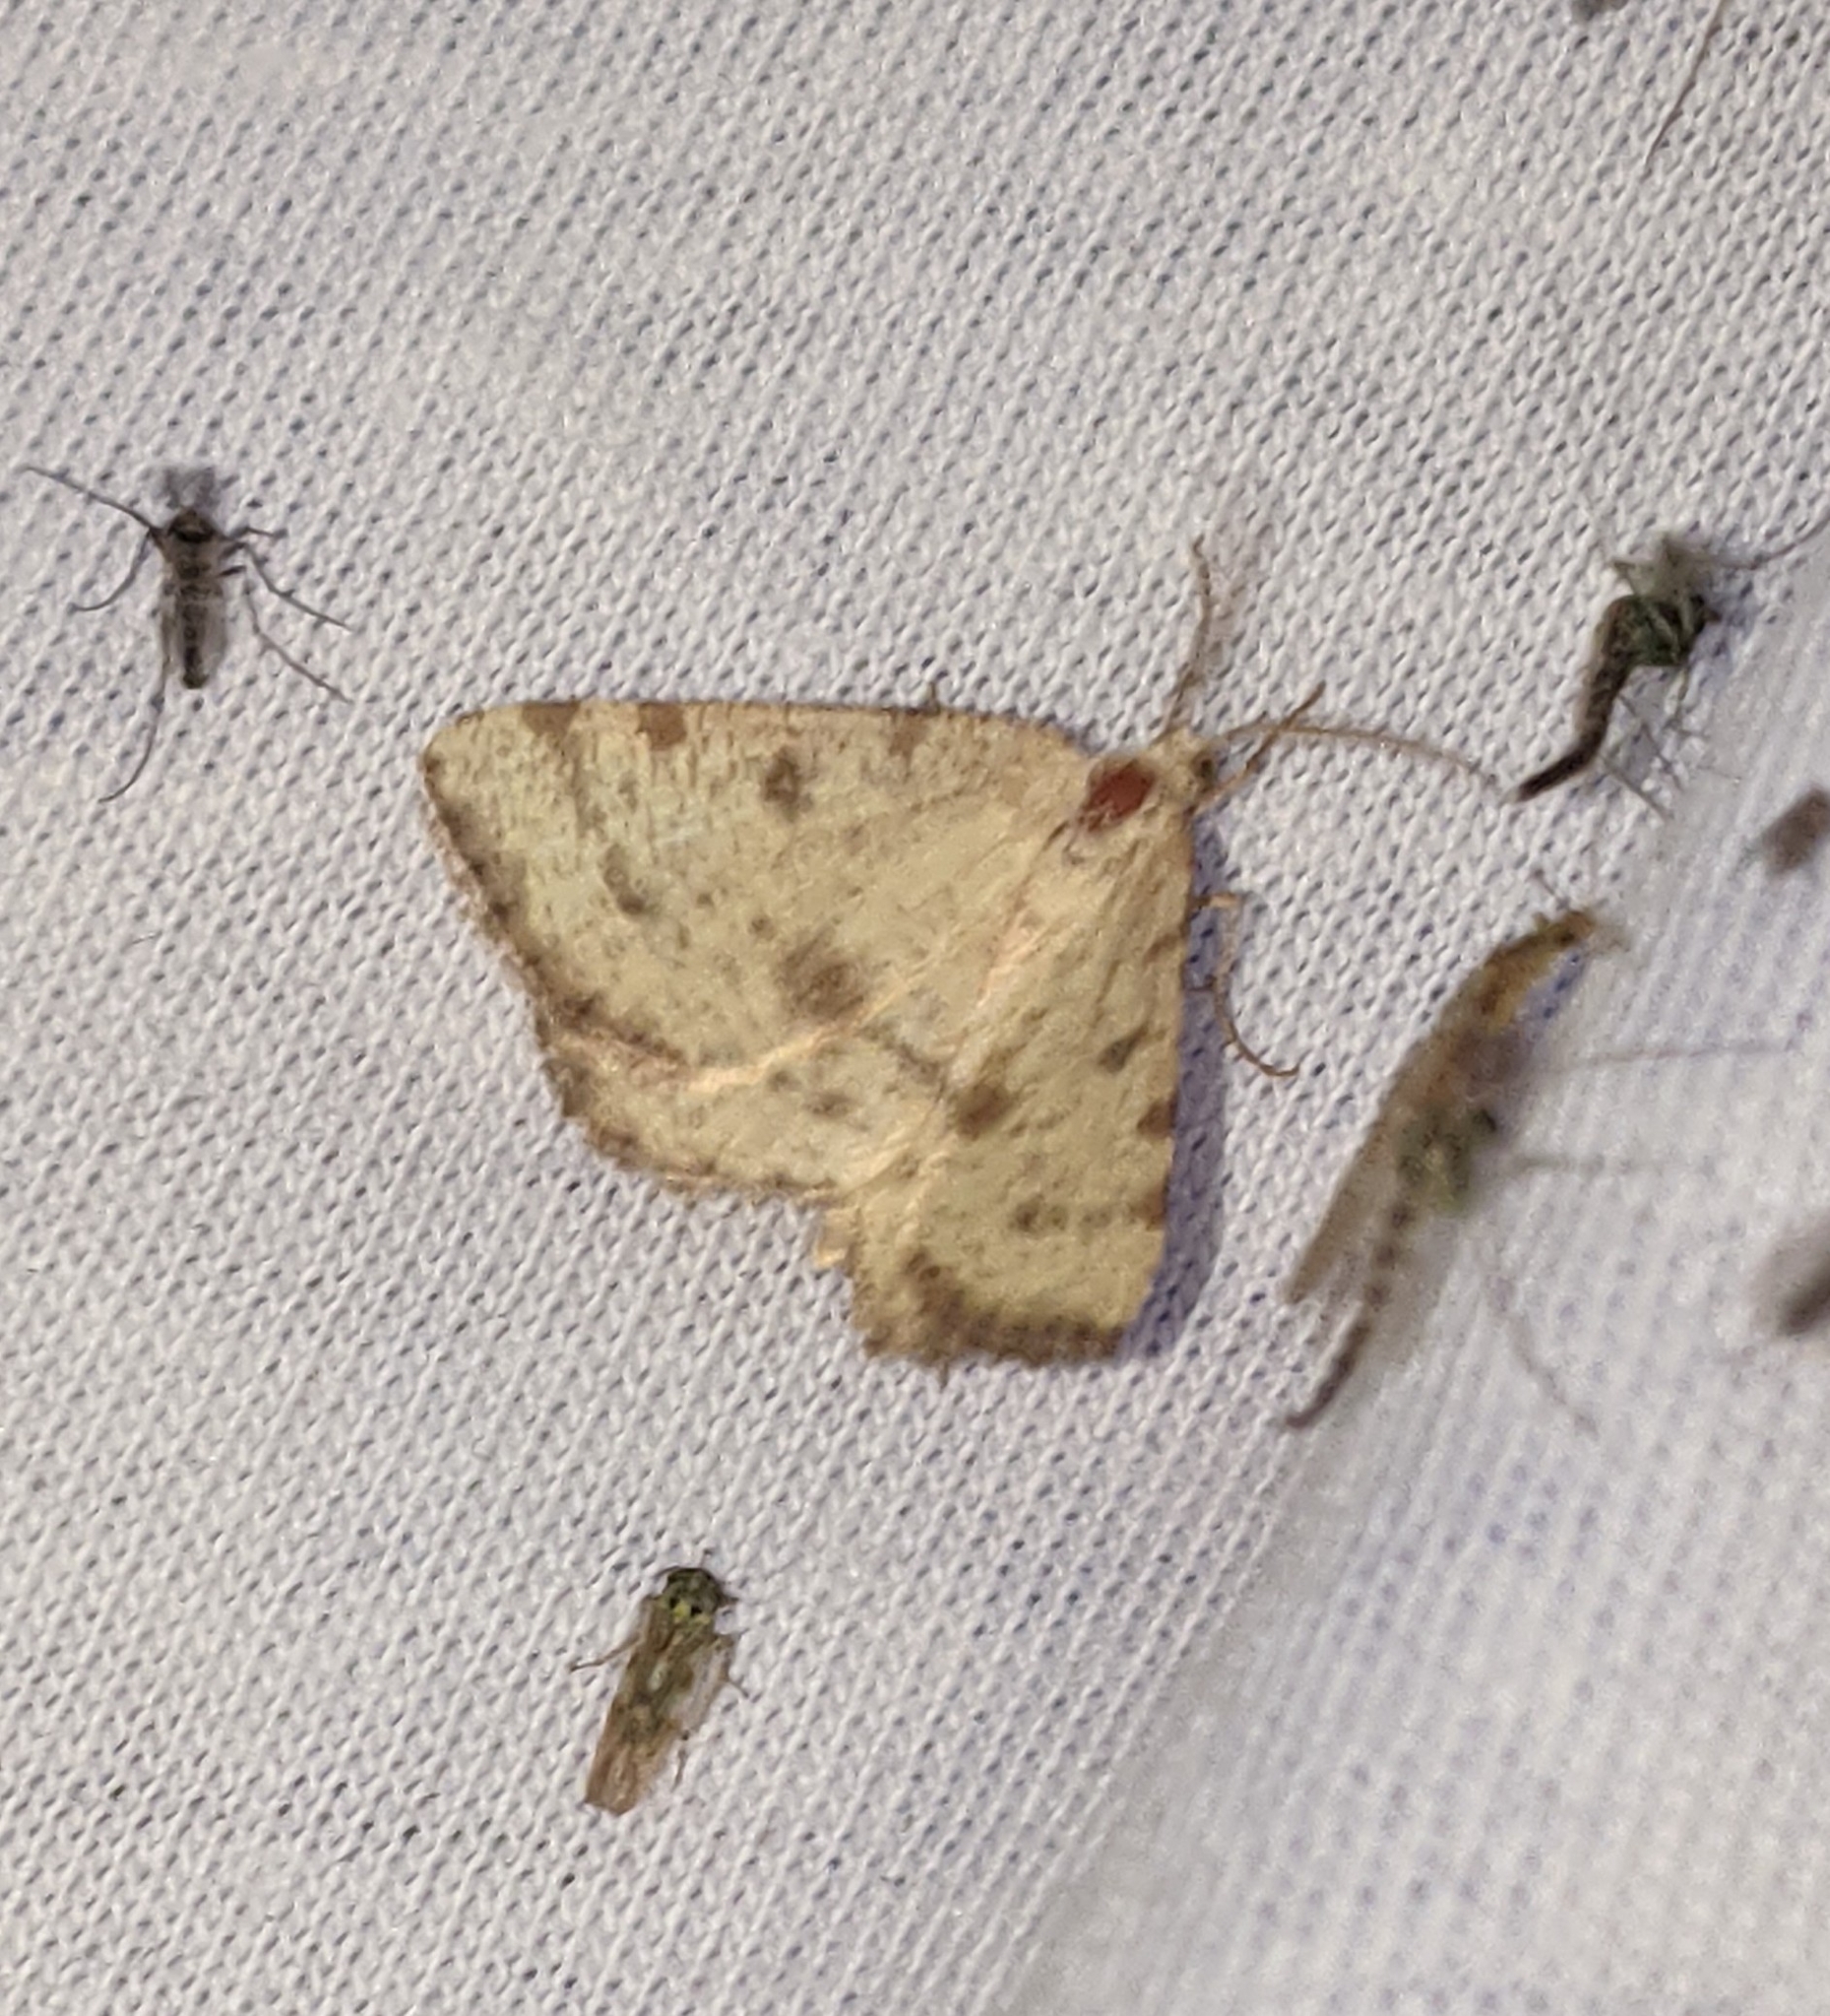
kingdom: Animalia
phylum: Arthropoda
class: Insecta
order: Lepidoptera
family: Geometridae
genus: Macaria
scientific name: Macaria amboflava
